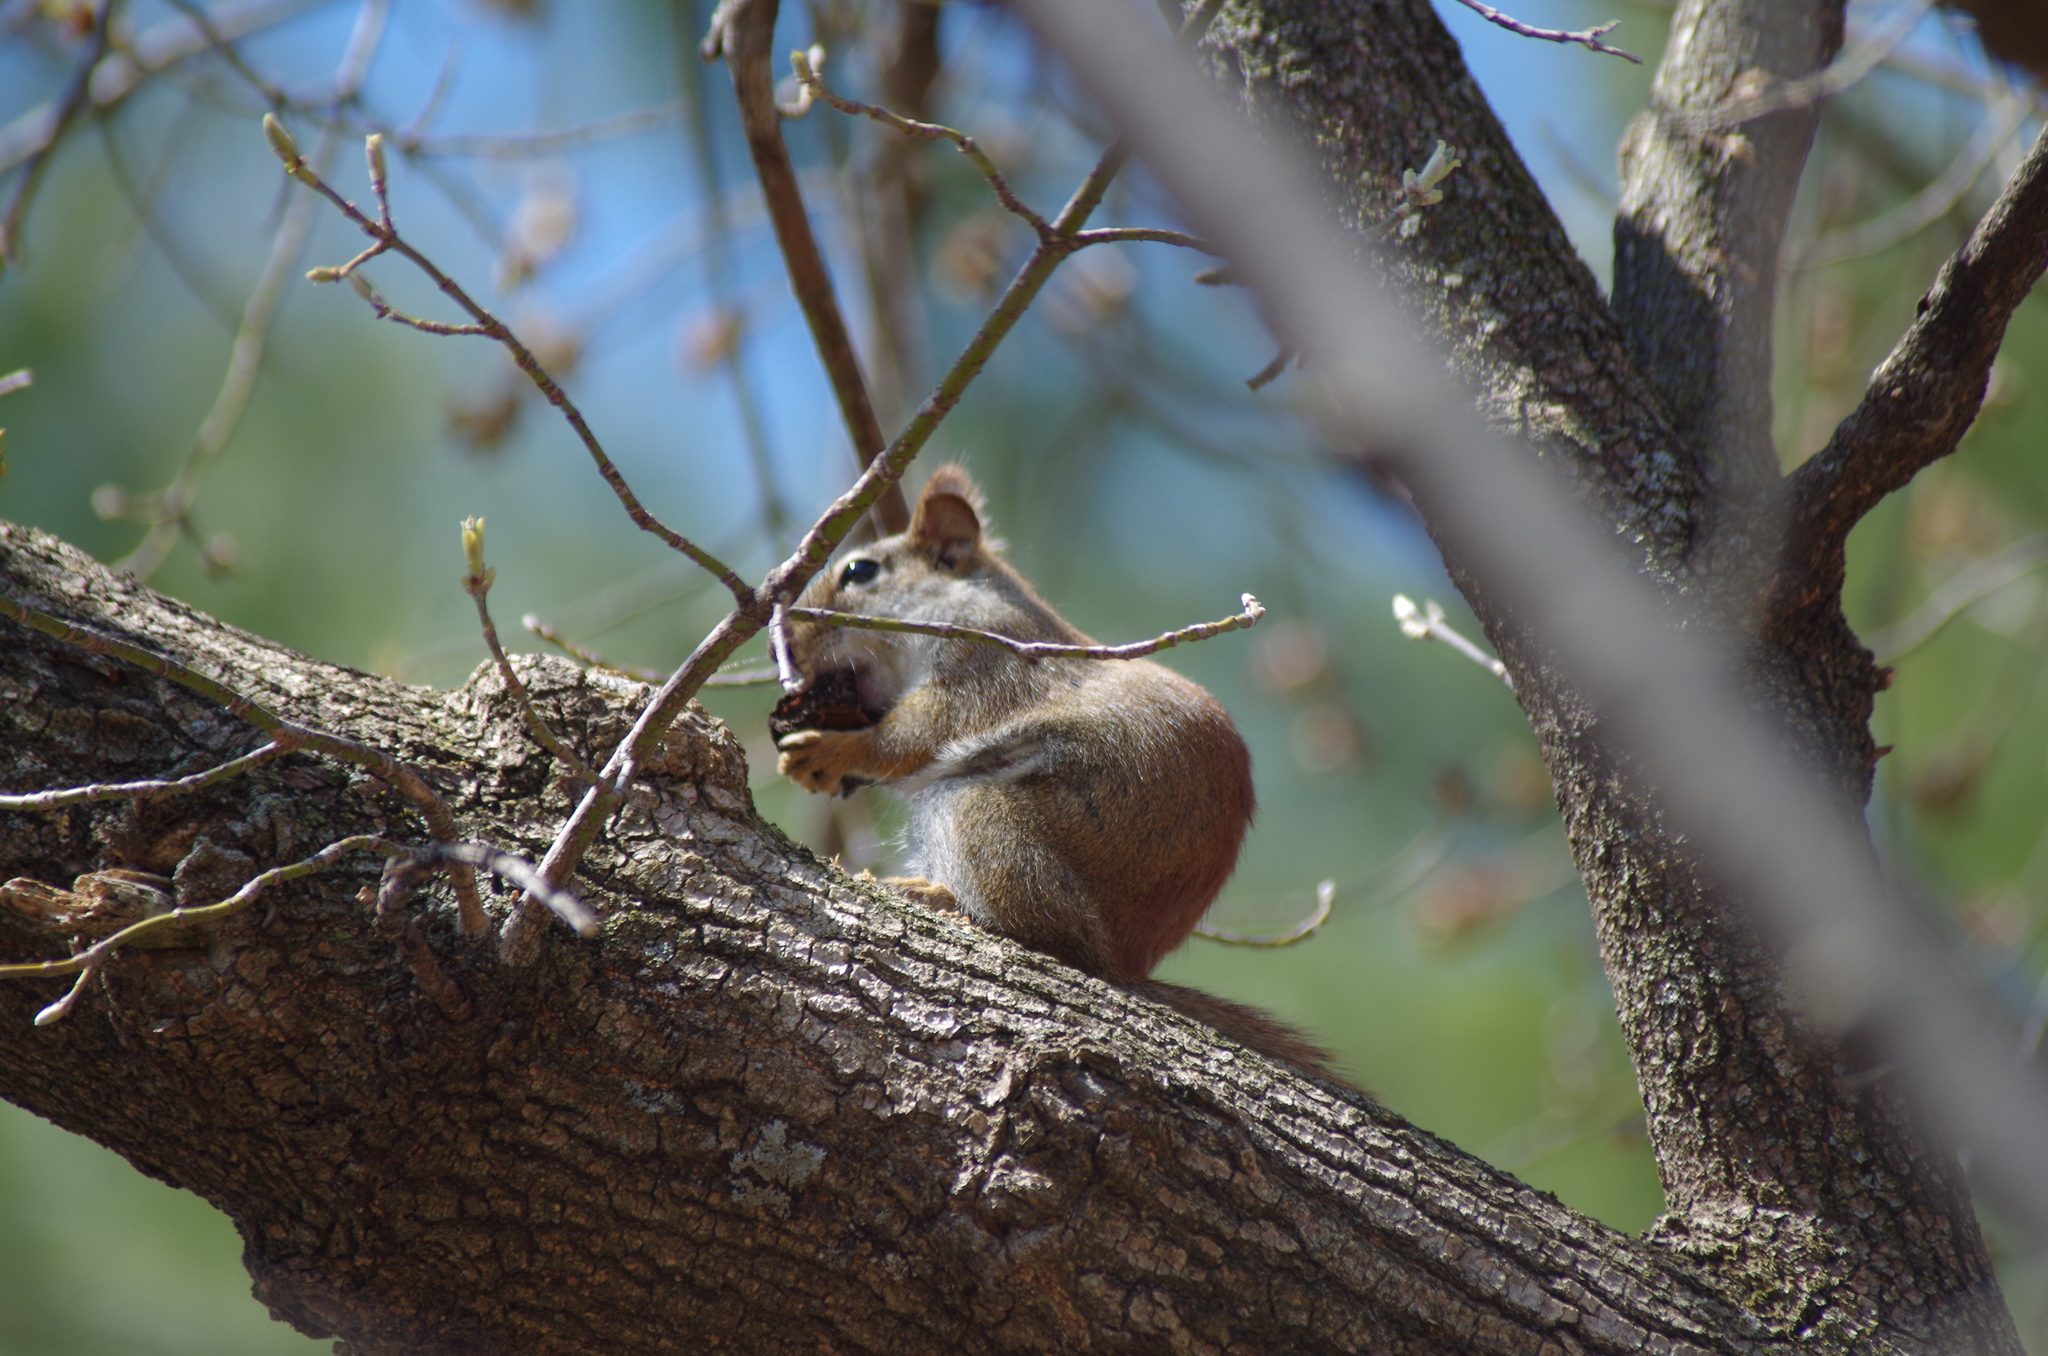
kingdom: Animalia
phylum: Chordata
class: Mammalia
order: Rodentia
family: Sciuridae
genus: Tamiasciurus
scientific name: Tamiasciurus hudsonicus
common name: Red squirrel
